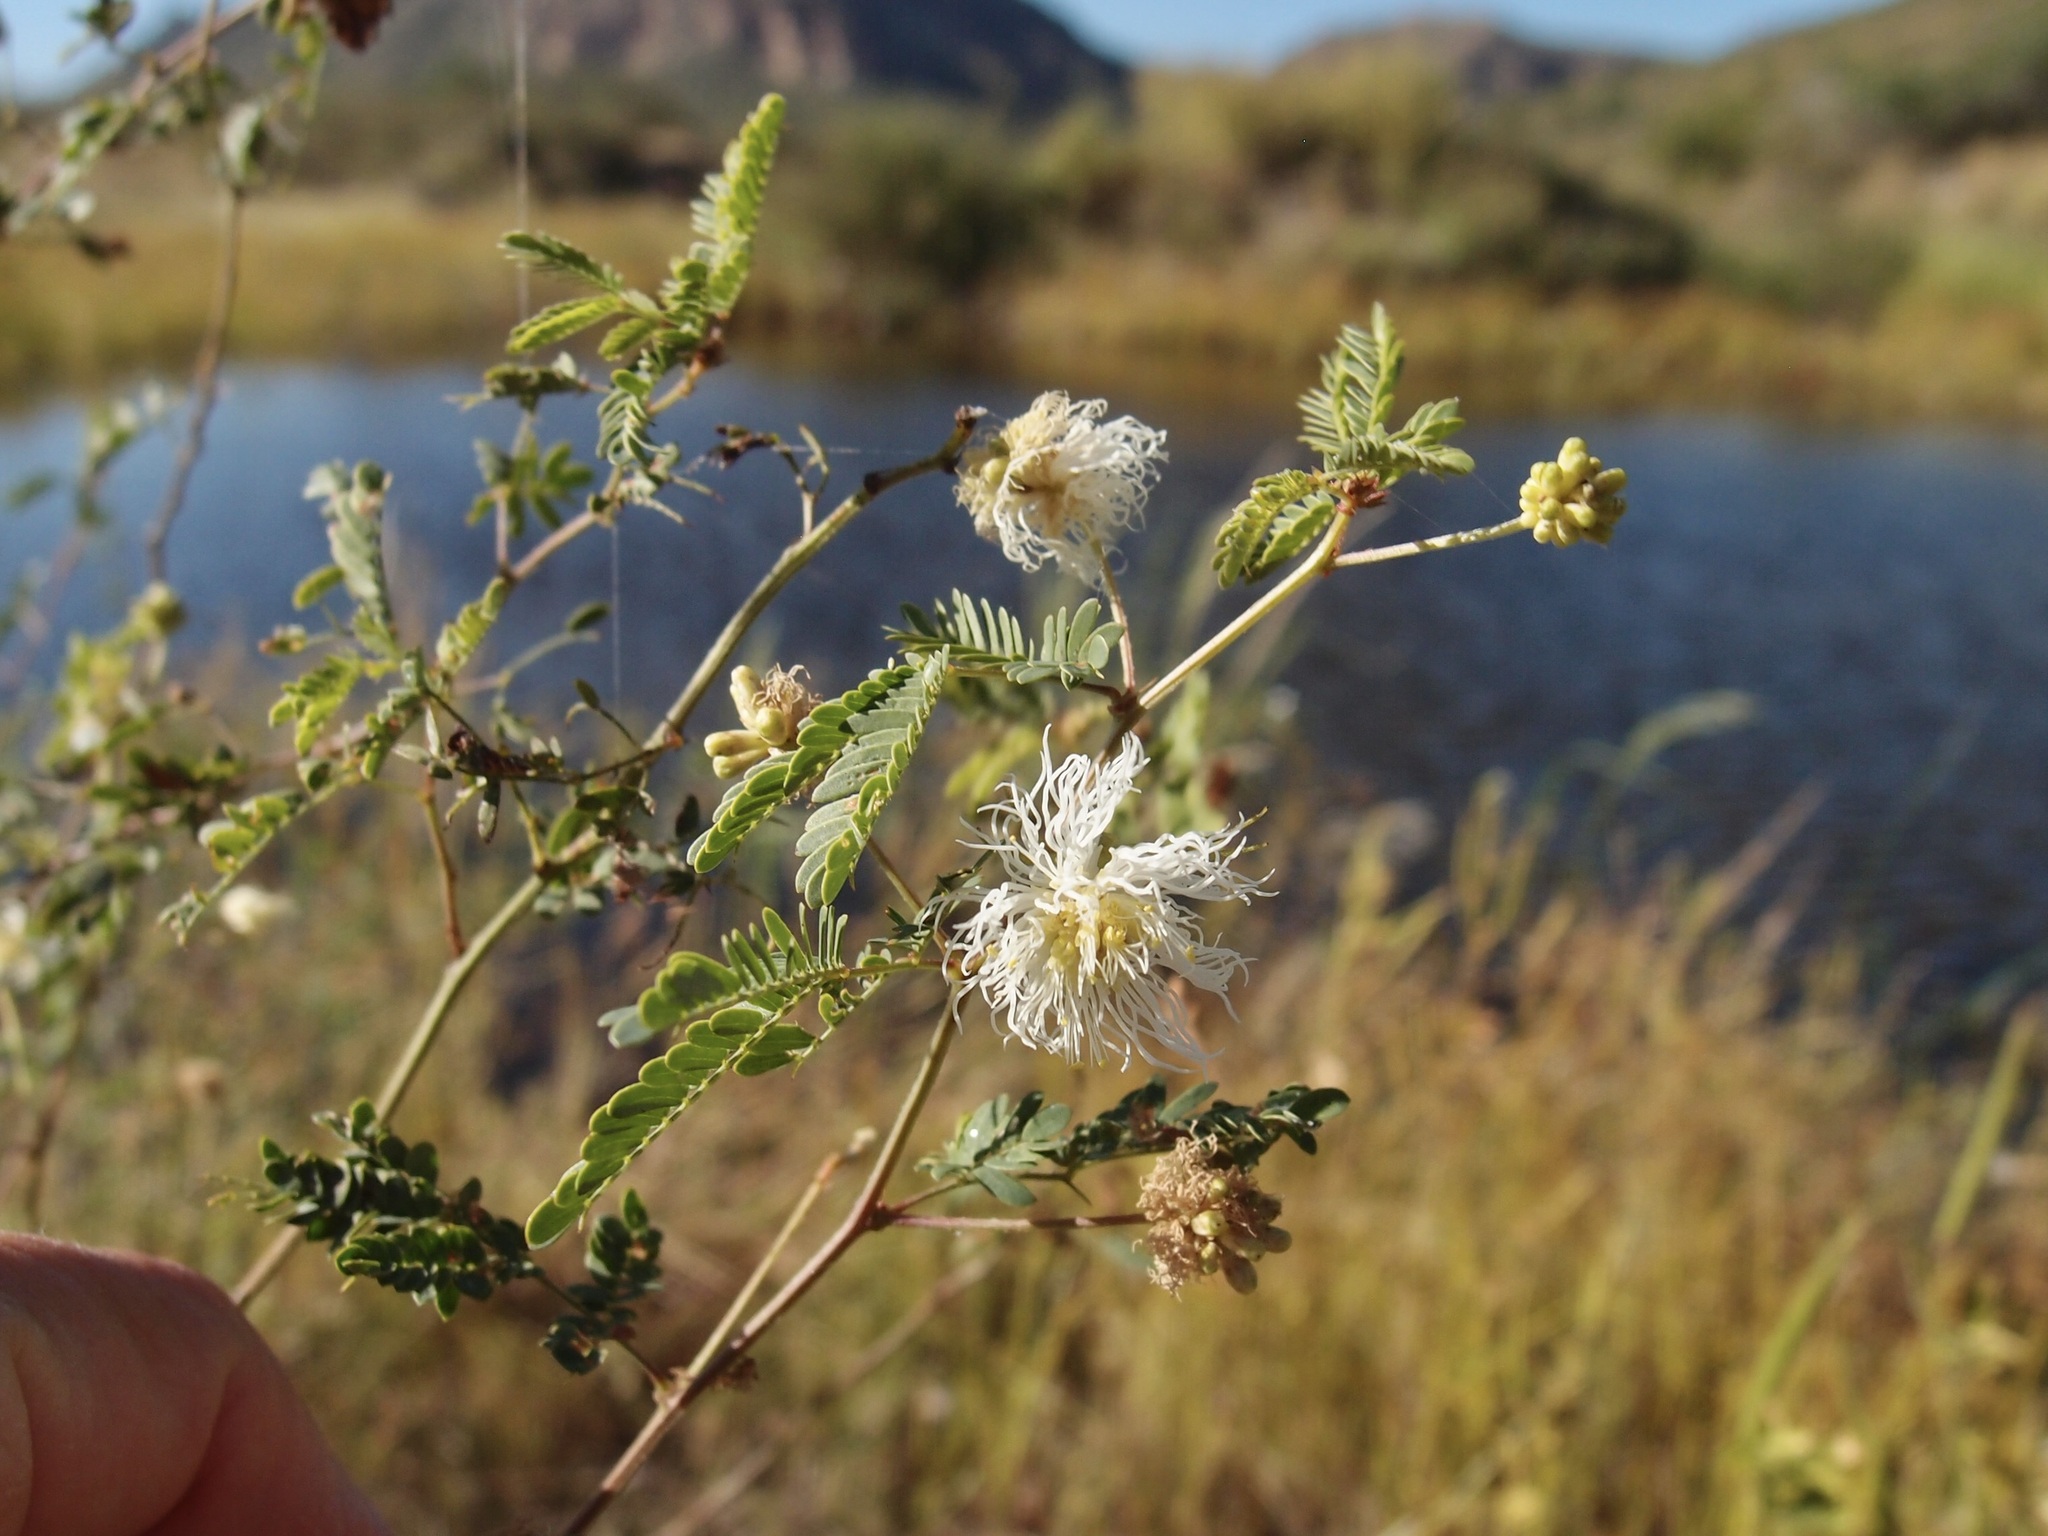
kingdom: Plantae
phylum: Tracheophyta
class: Magnoliopsida
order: Fabales
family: Fabaceae
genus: Desmanthus
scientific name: Desmanthus covillei
